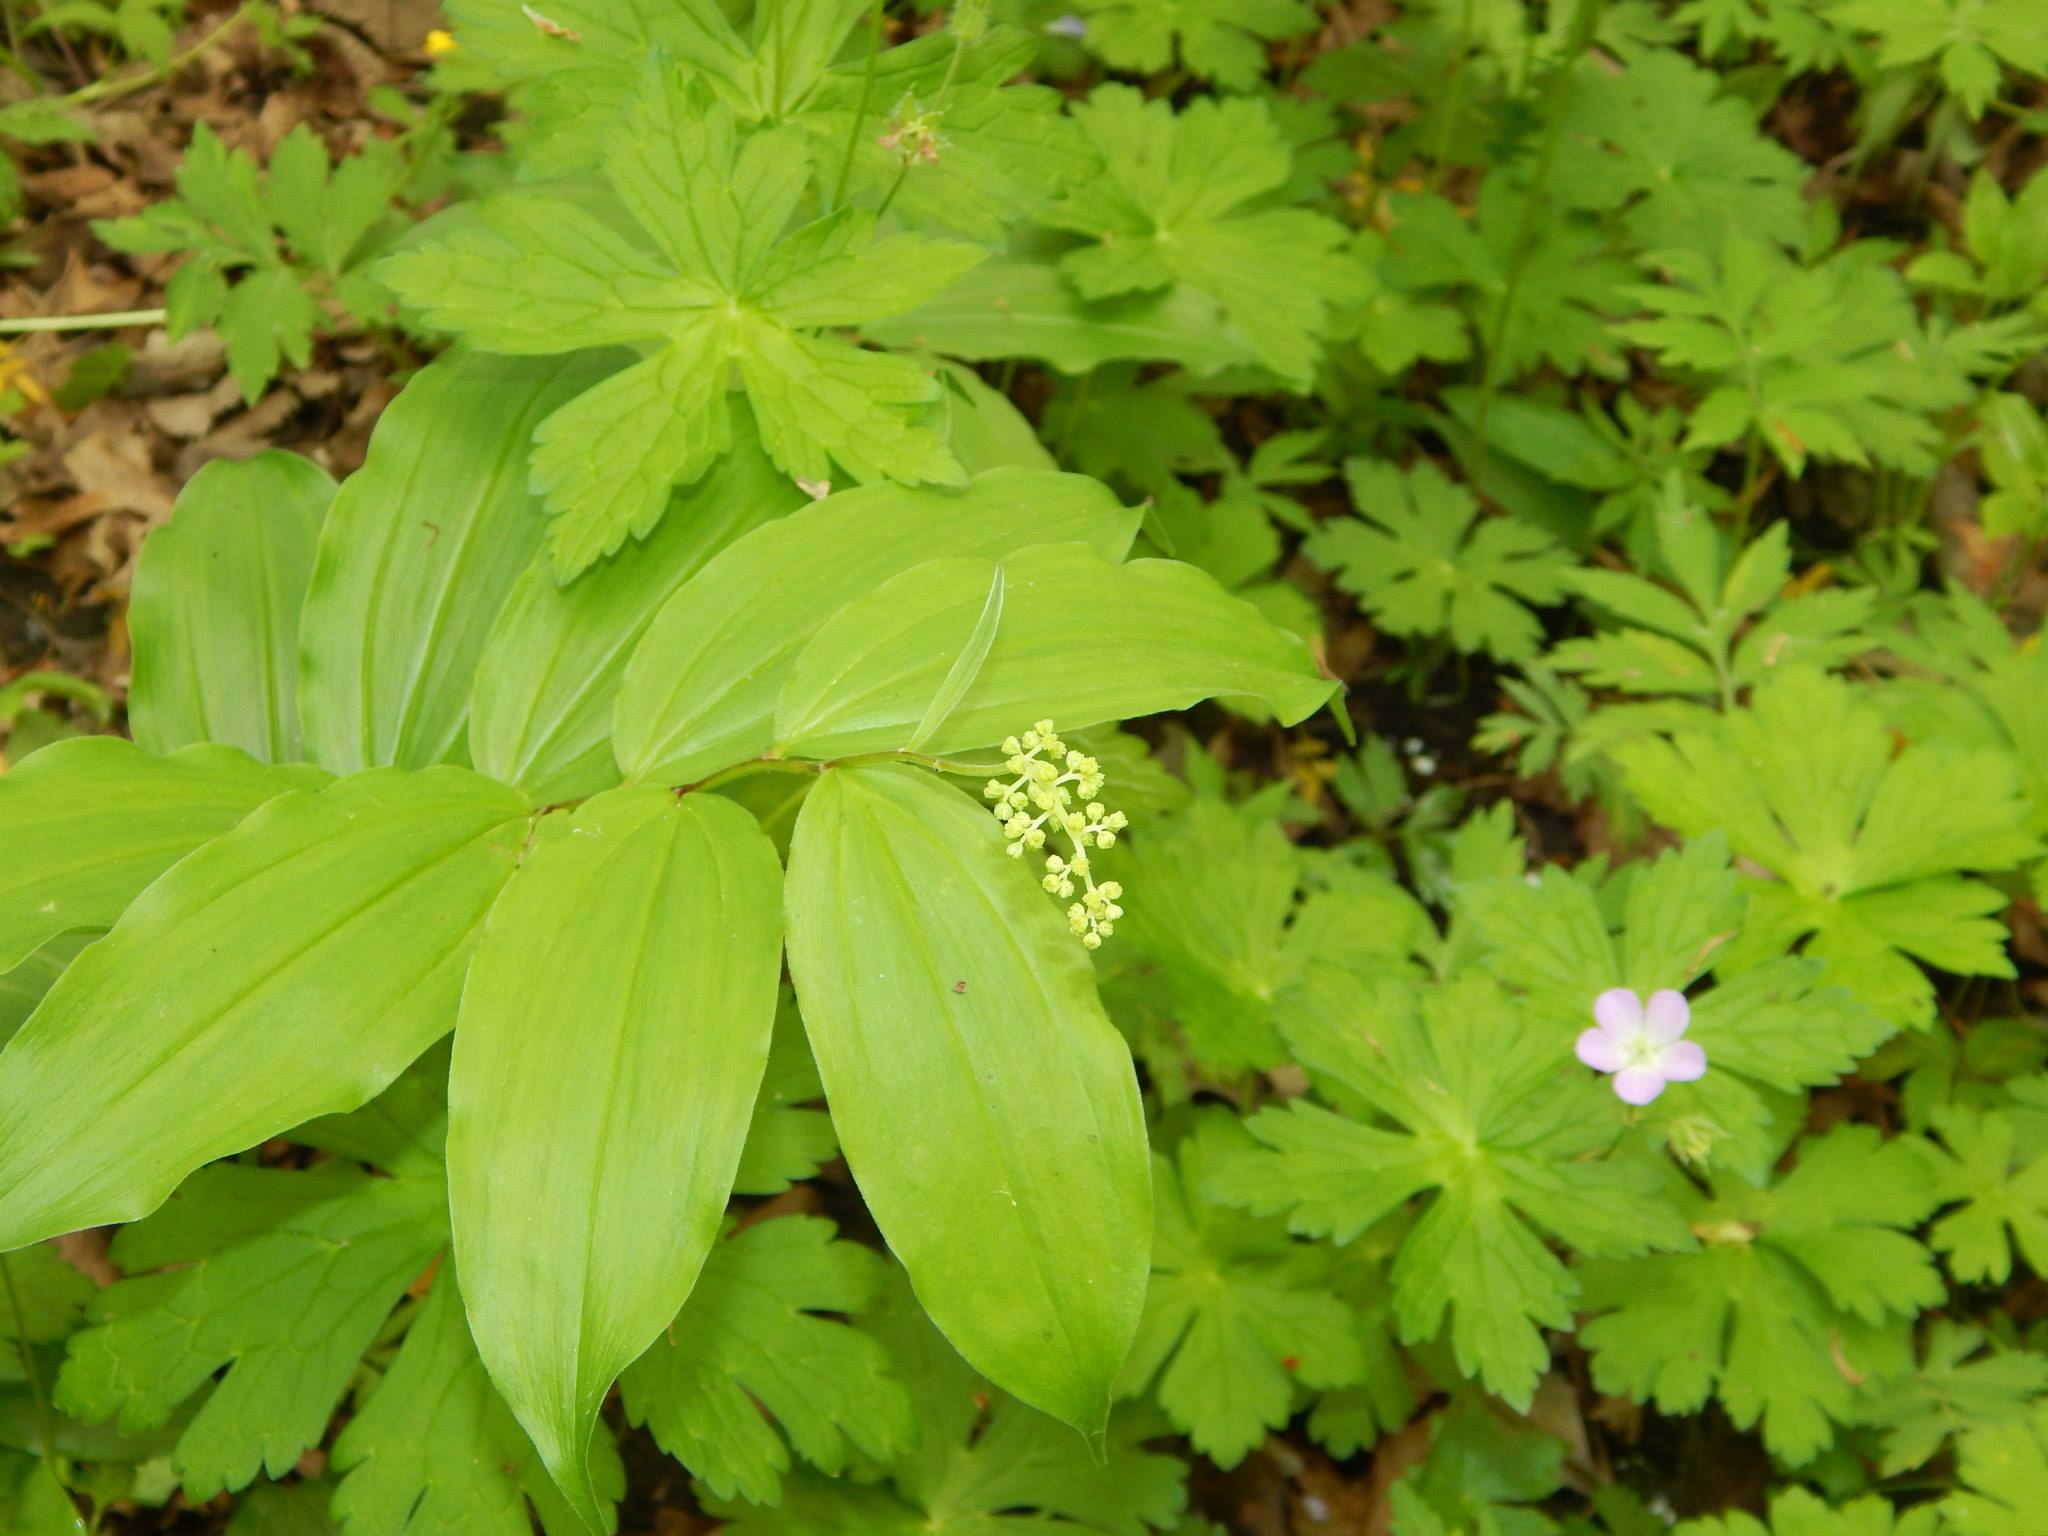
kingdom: Plantae
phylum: Tracheophyta
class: Liliopsida
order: Asparagales
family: Asparagaceae
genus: Maianthemum
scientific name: Maianthemum racemosum
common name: False spikenard
